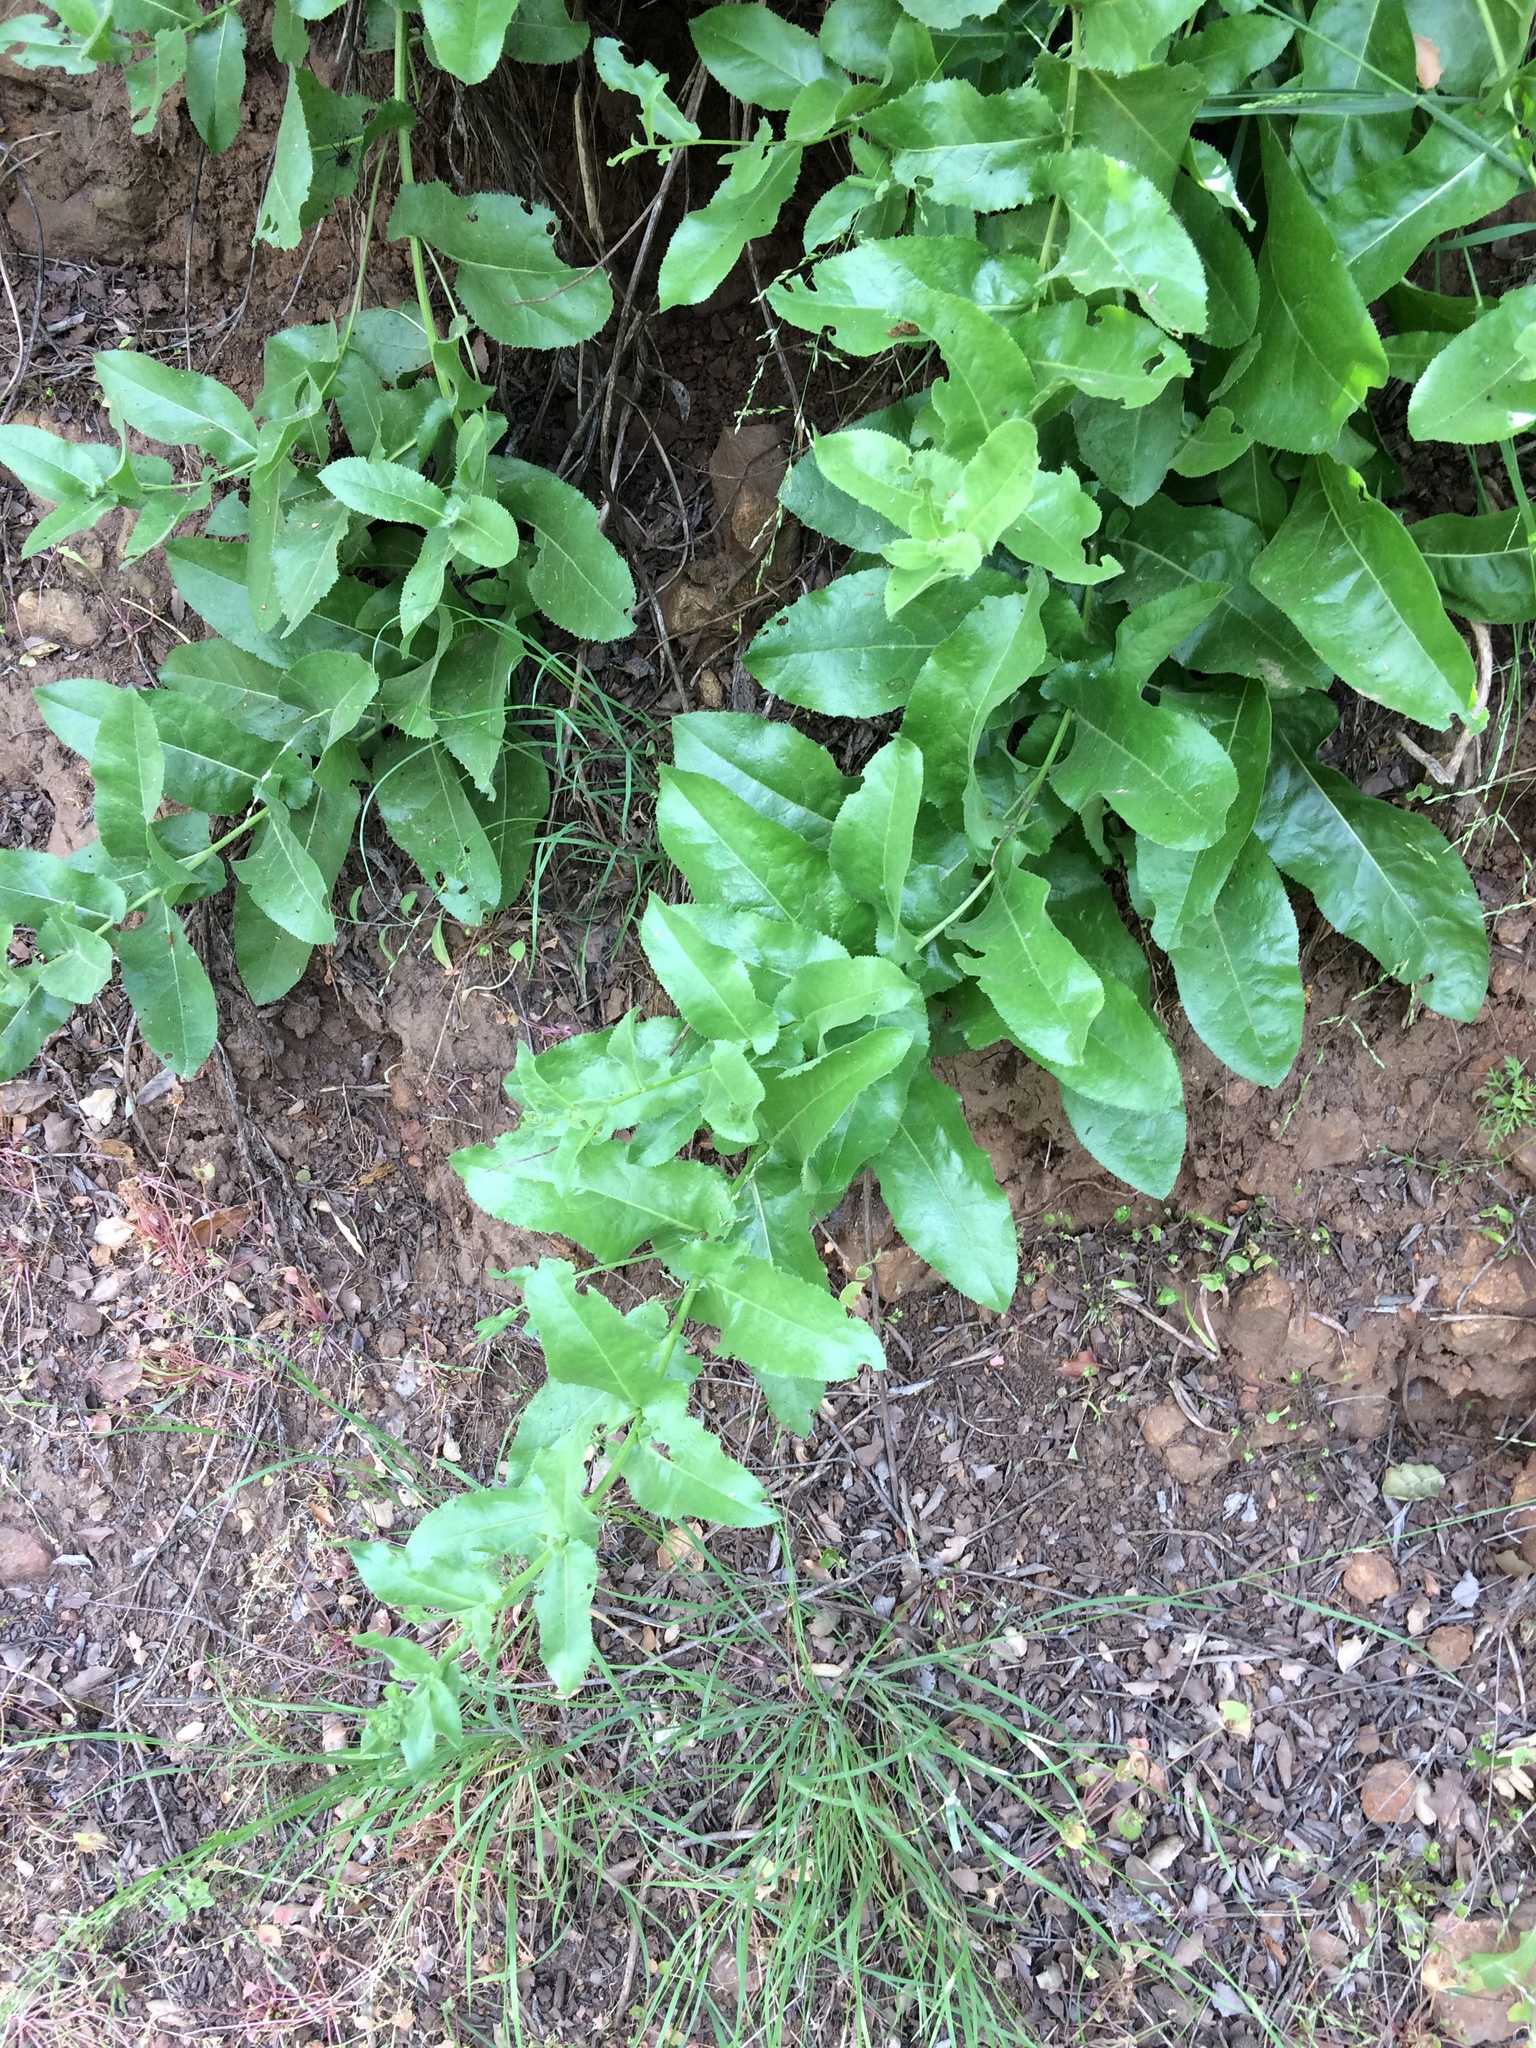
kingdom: Plantae
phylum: Tracheophyta
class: Magnoliopsida
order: Asterales
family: Asteraceae
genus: Acourtia
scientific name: Acourtia microcephala
